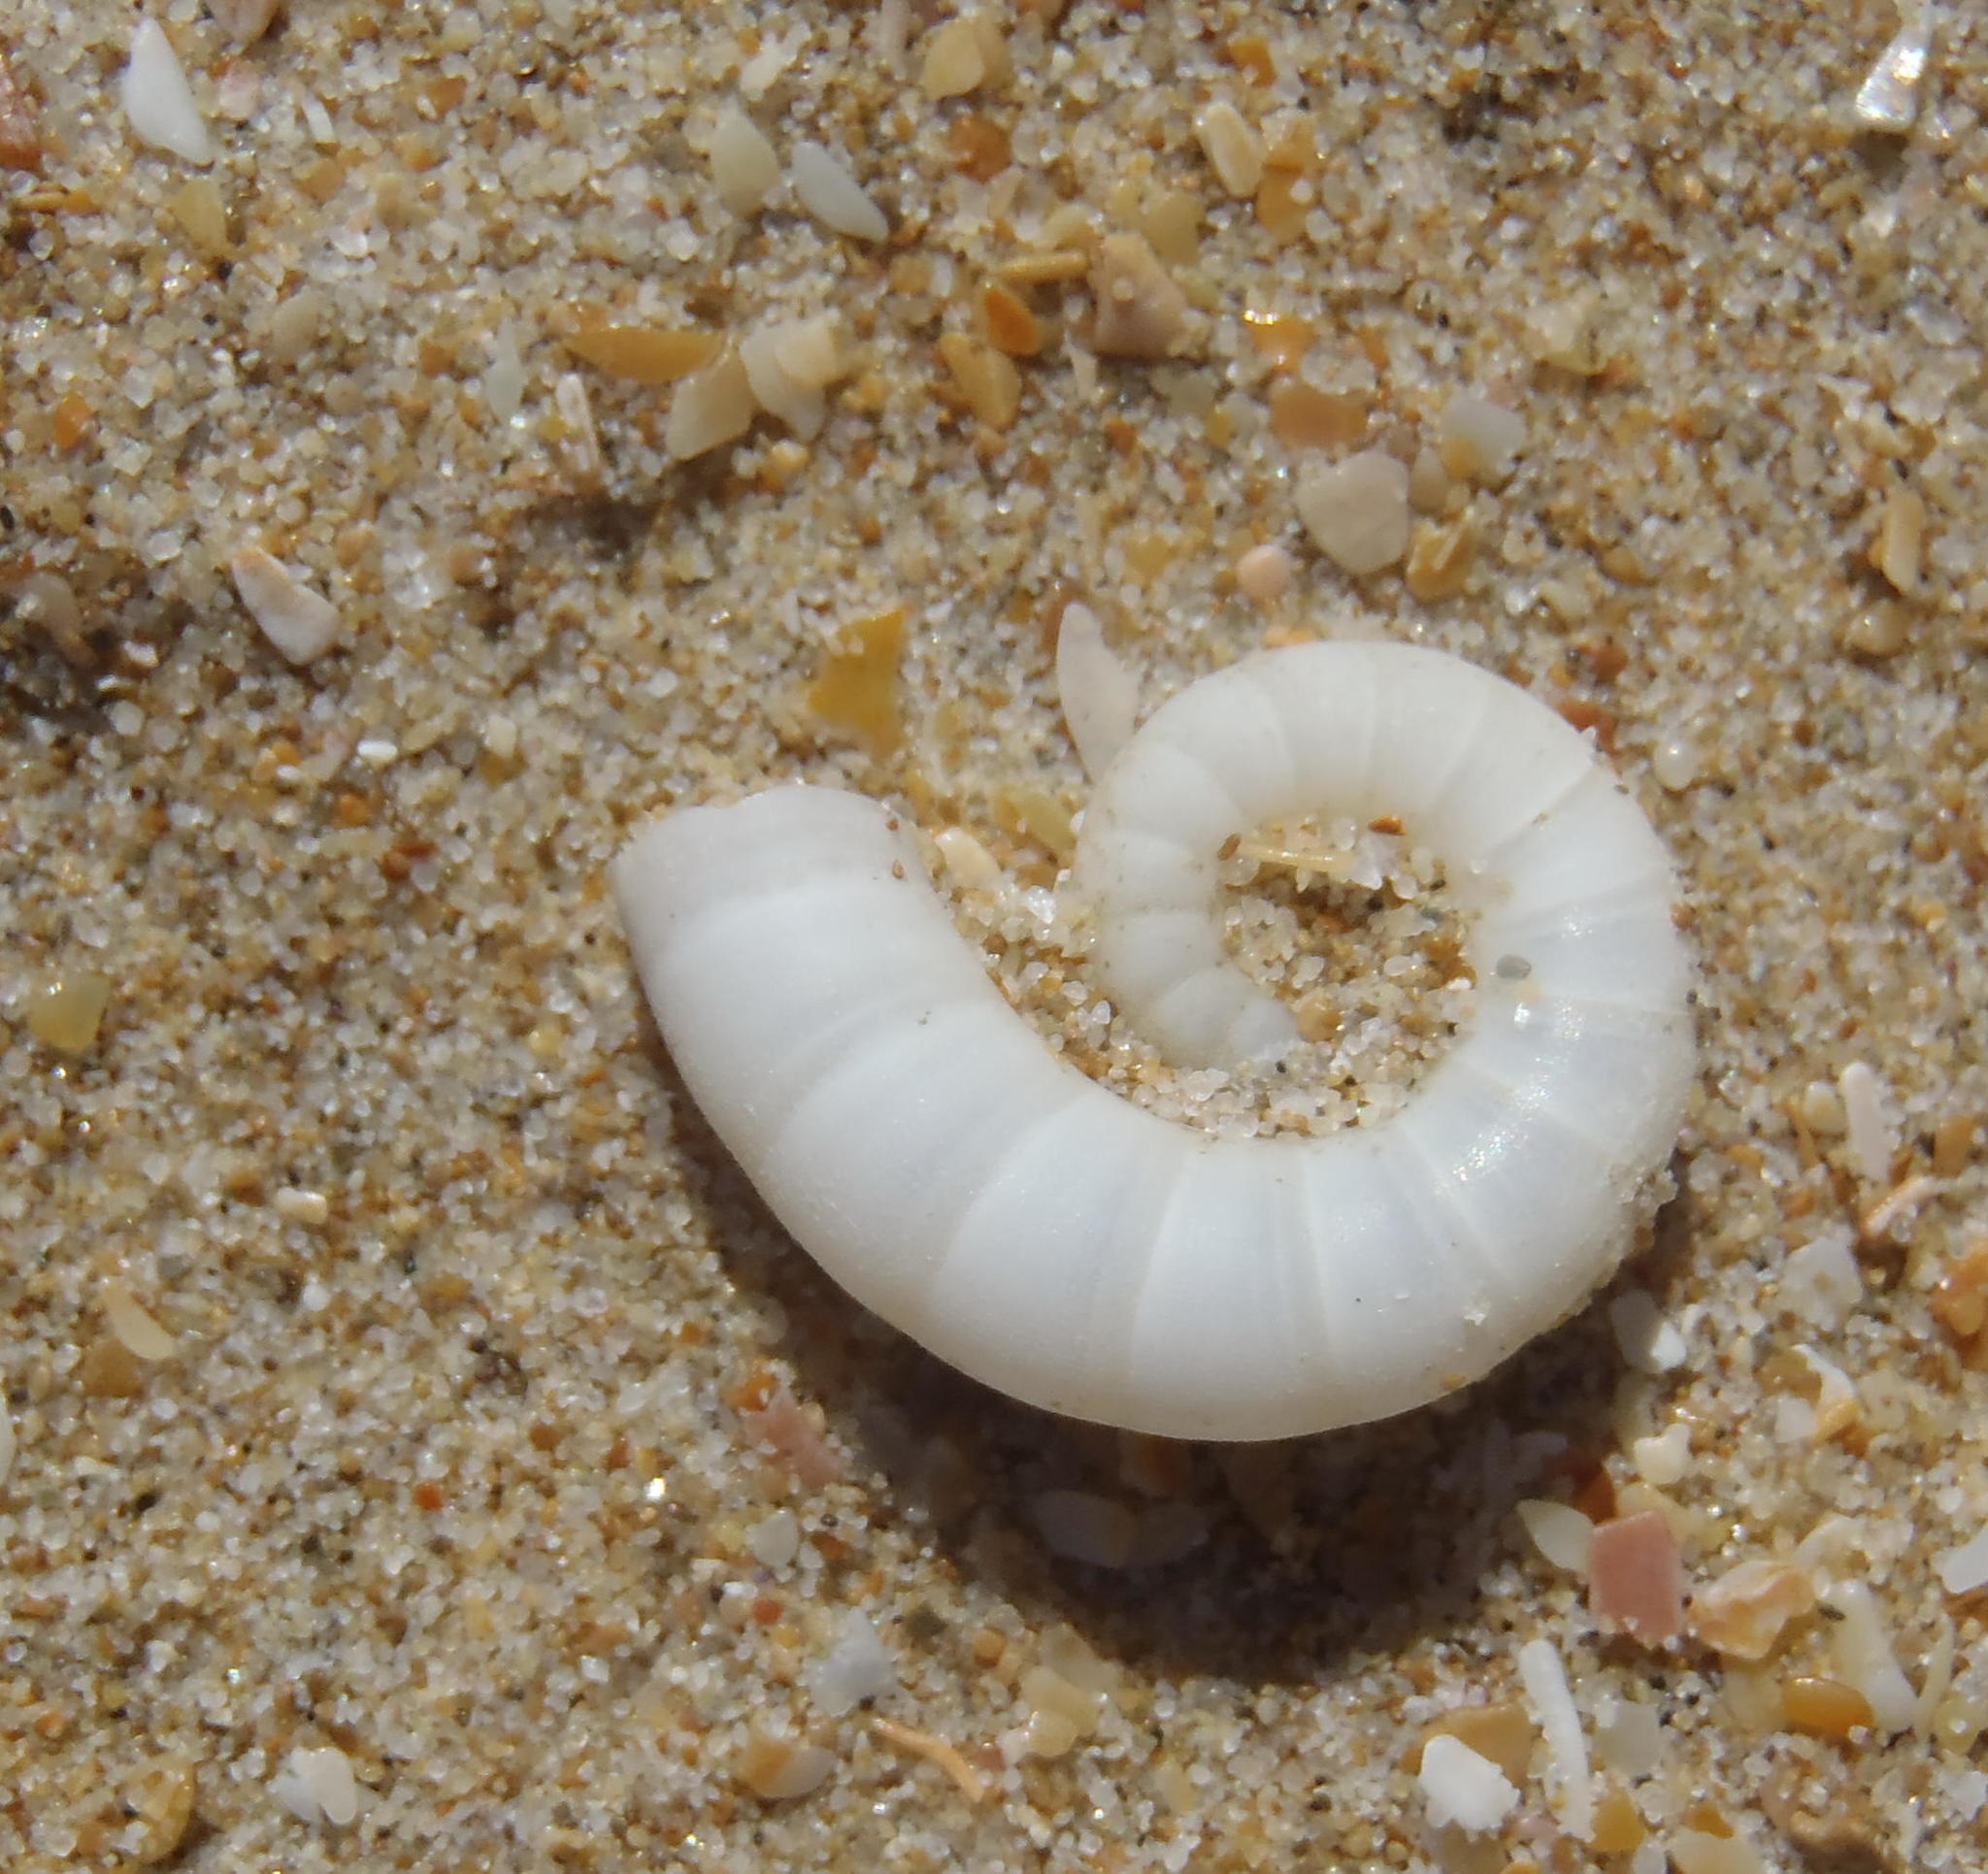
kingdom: Animalia
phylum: Mollusca
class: Cephalopoda
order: Spirulida
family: Spirulidae
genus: Spirula
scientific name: Spirula spirula
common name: Ram's horn squid
